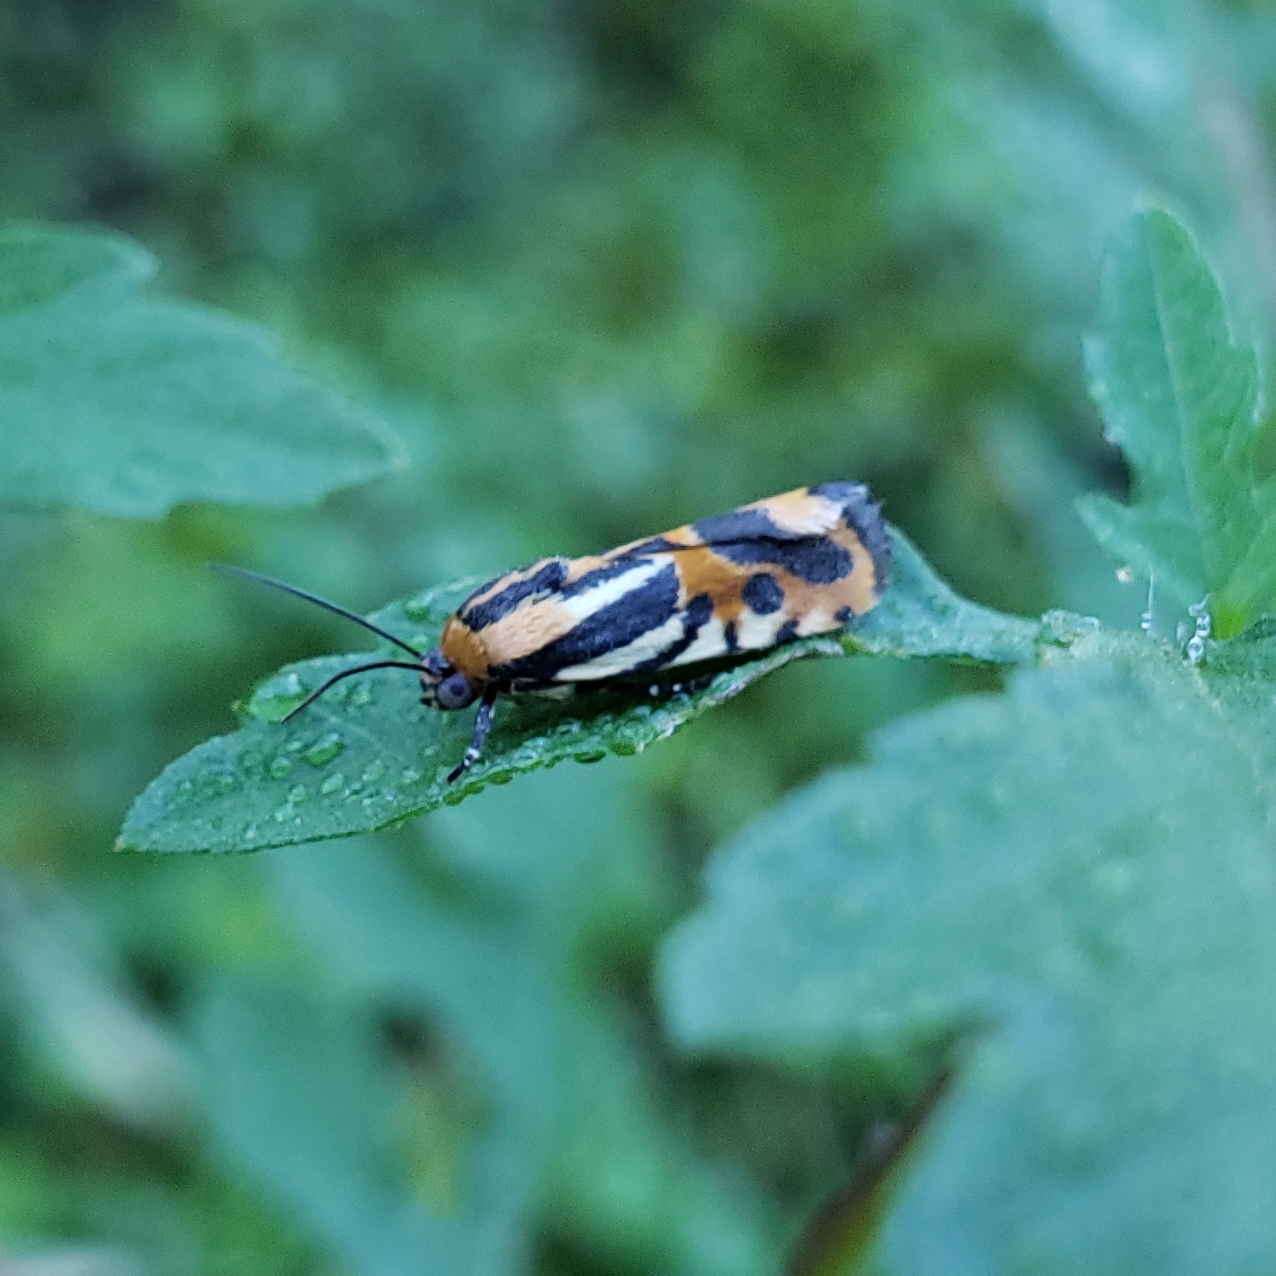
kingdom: Animalia
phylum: Arthropoda
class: Insecta
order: Lepidoptera
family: Noctuidae
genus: Acontia
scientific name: Acontia onagrus
